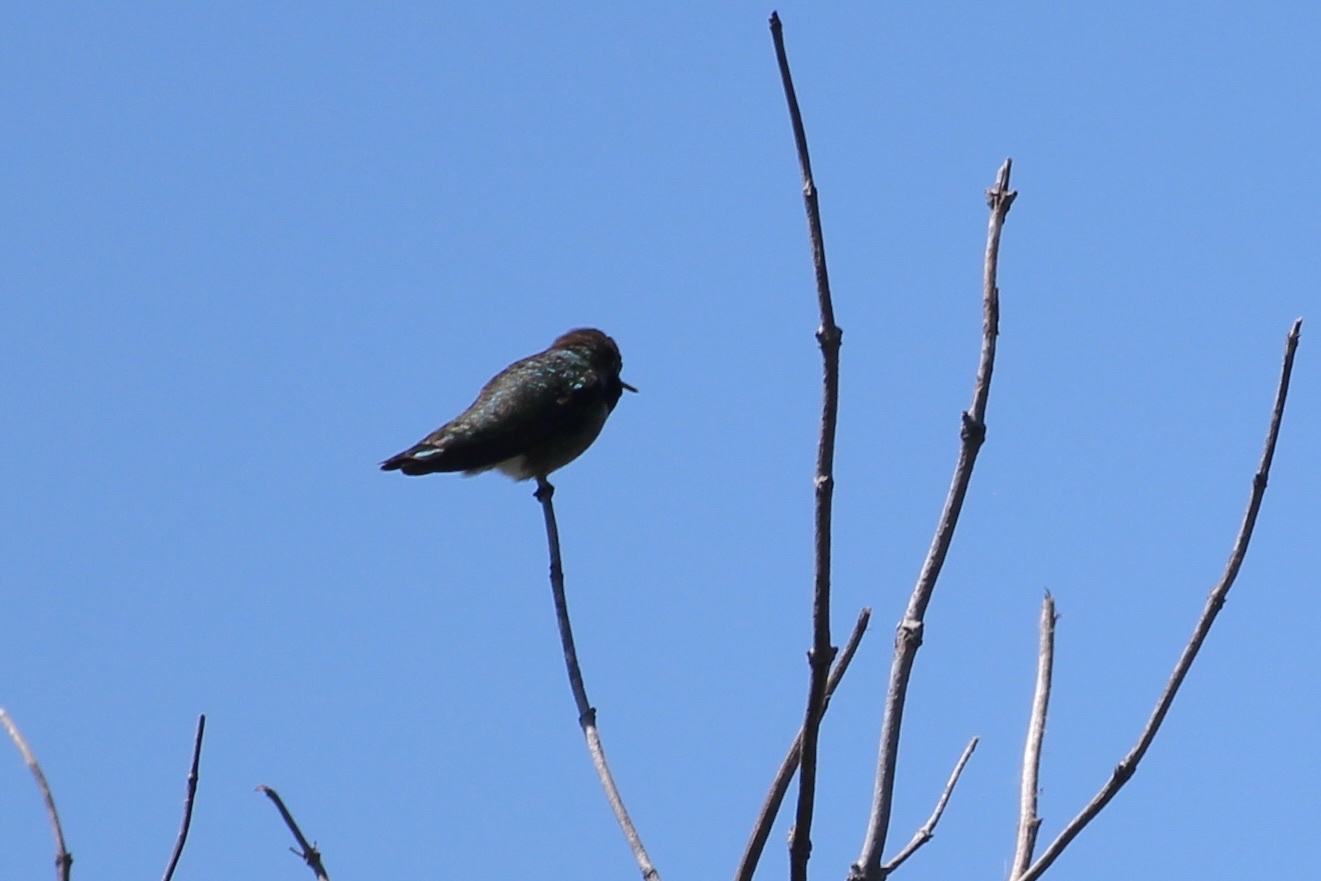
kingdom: Animalia
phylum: Chordata
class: Aves
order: Apodiformes
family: Trochilidae
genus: Calypte
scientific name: Calypte anna
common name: Anna's hummingbird
